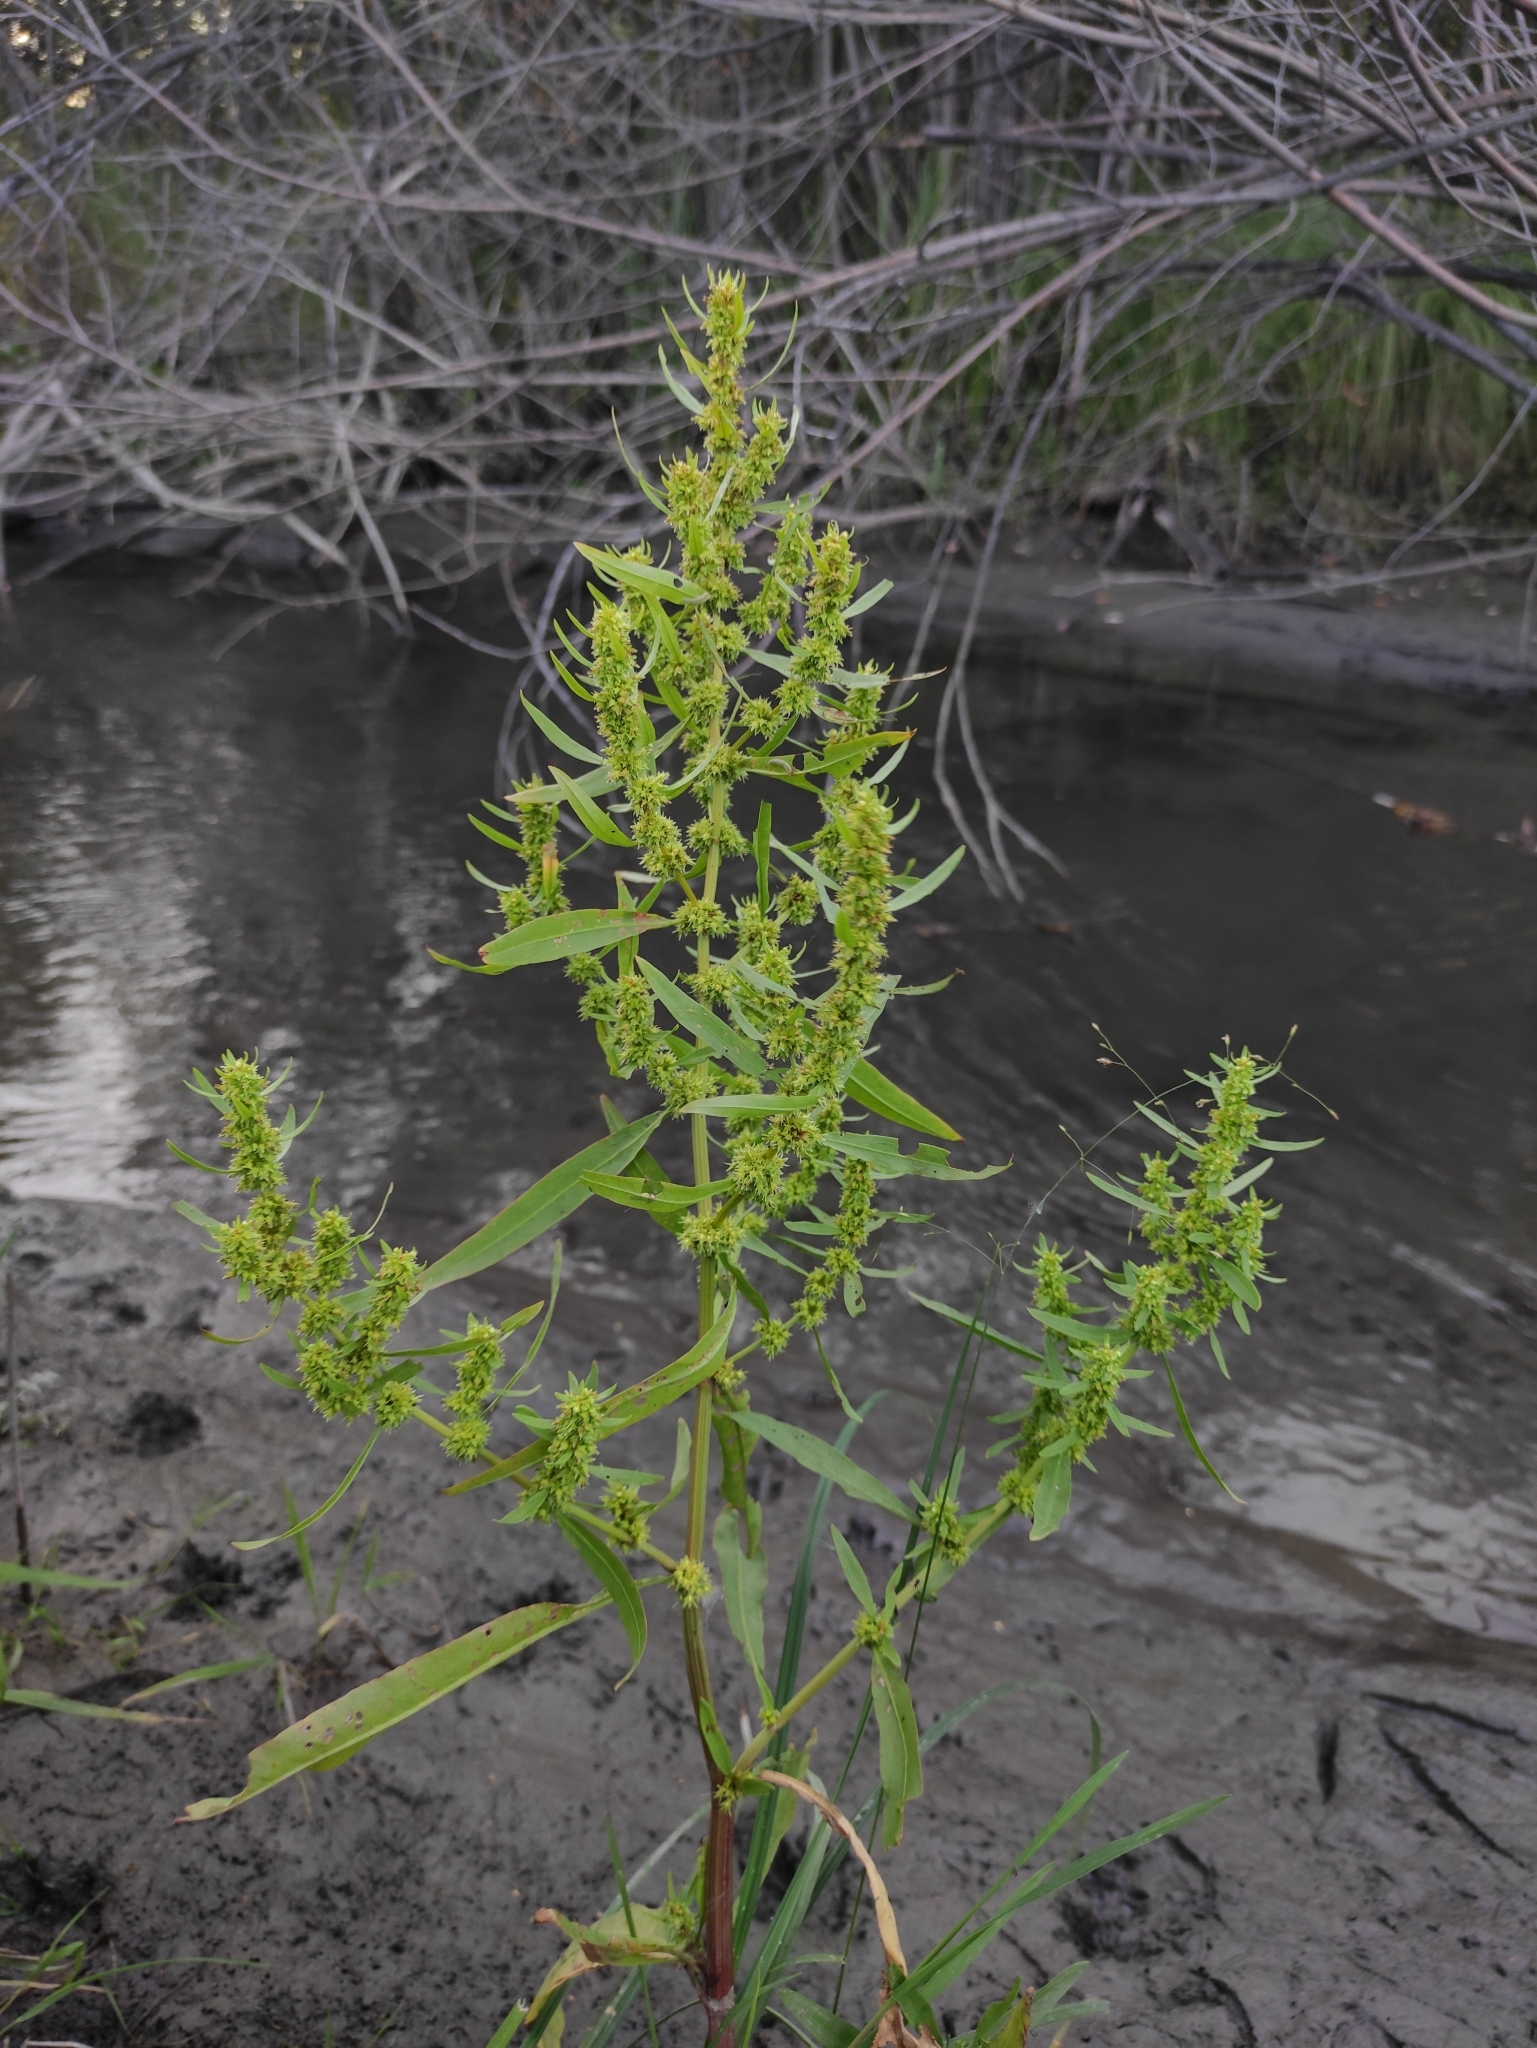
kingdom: Plantae
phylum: Tracheophyta
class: Magnoliopsida
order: Caryophyllales
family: Polygonaceae
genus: Rumex
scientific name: Rumex maritimus
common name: Golden dock
